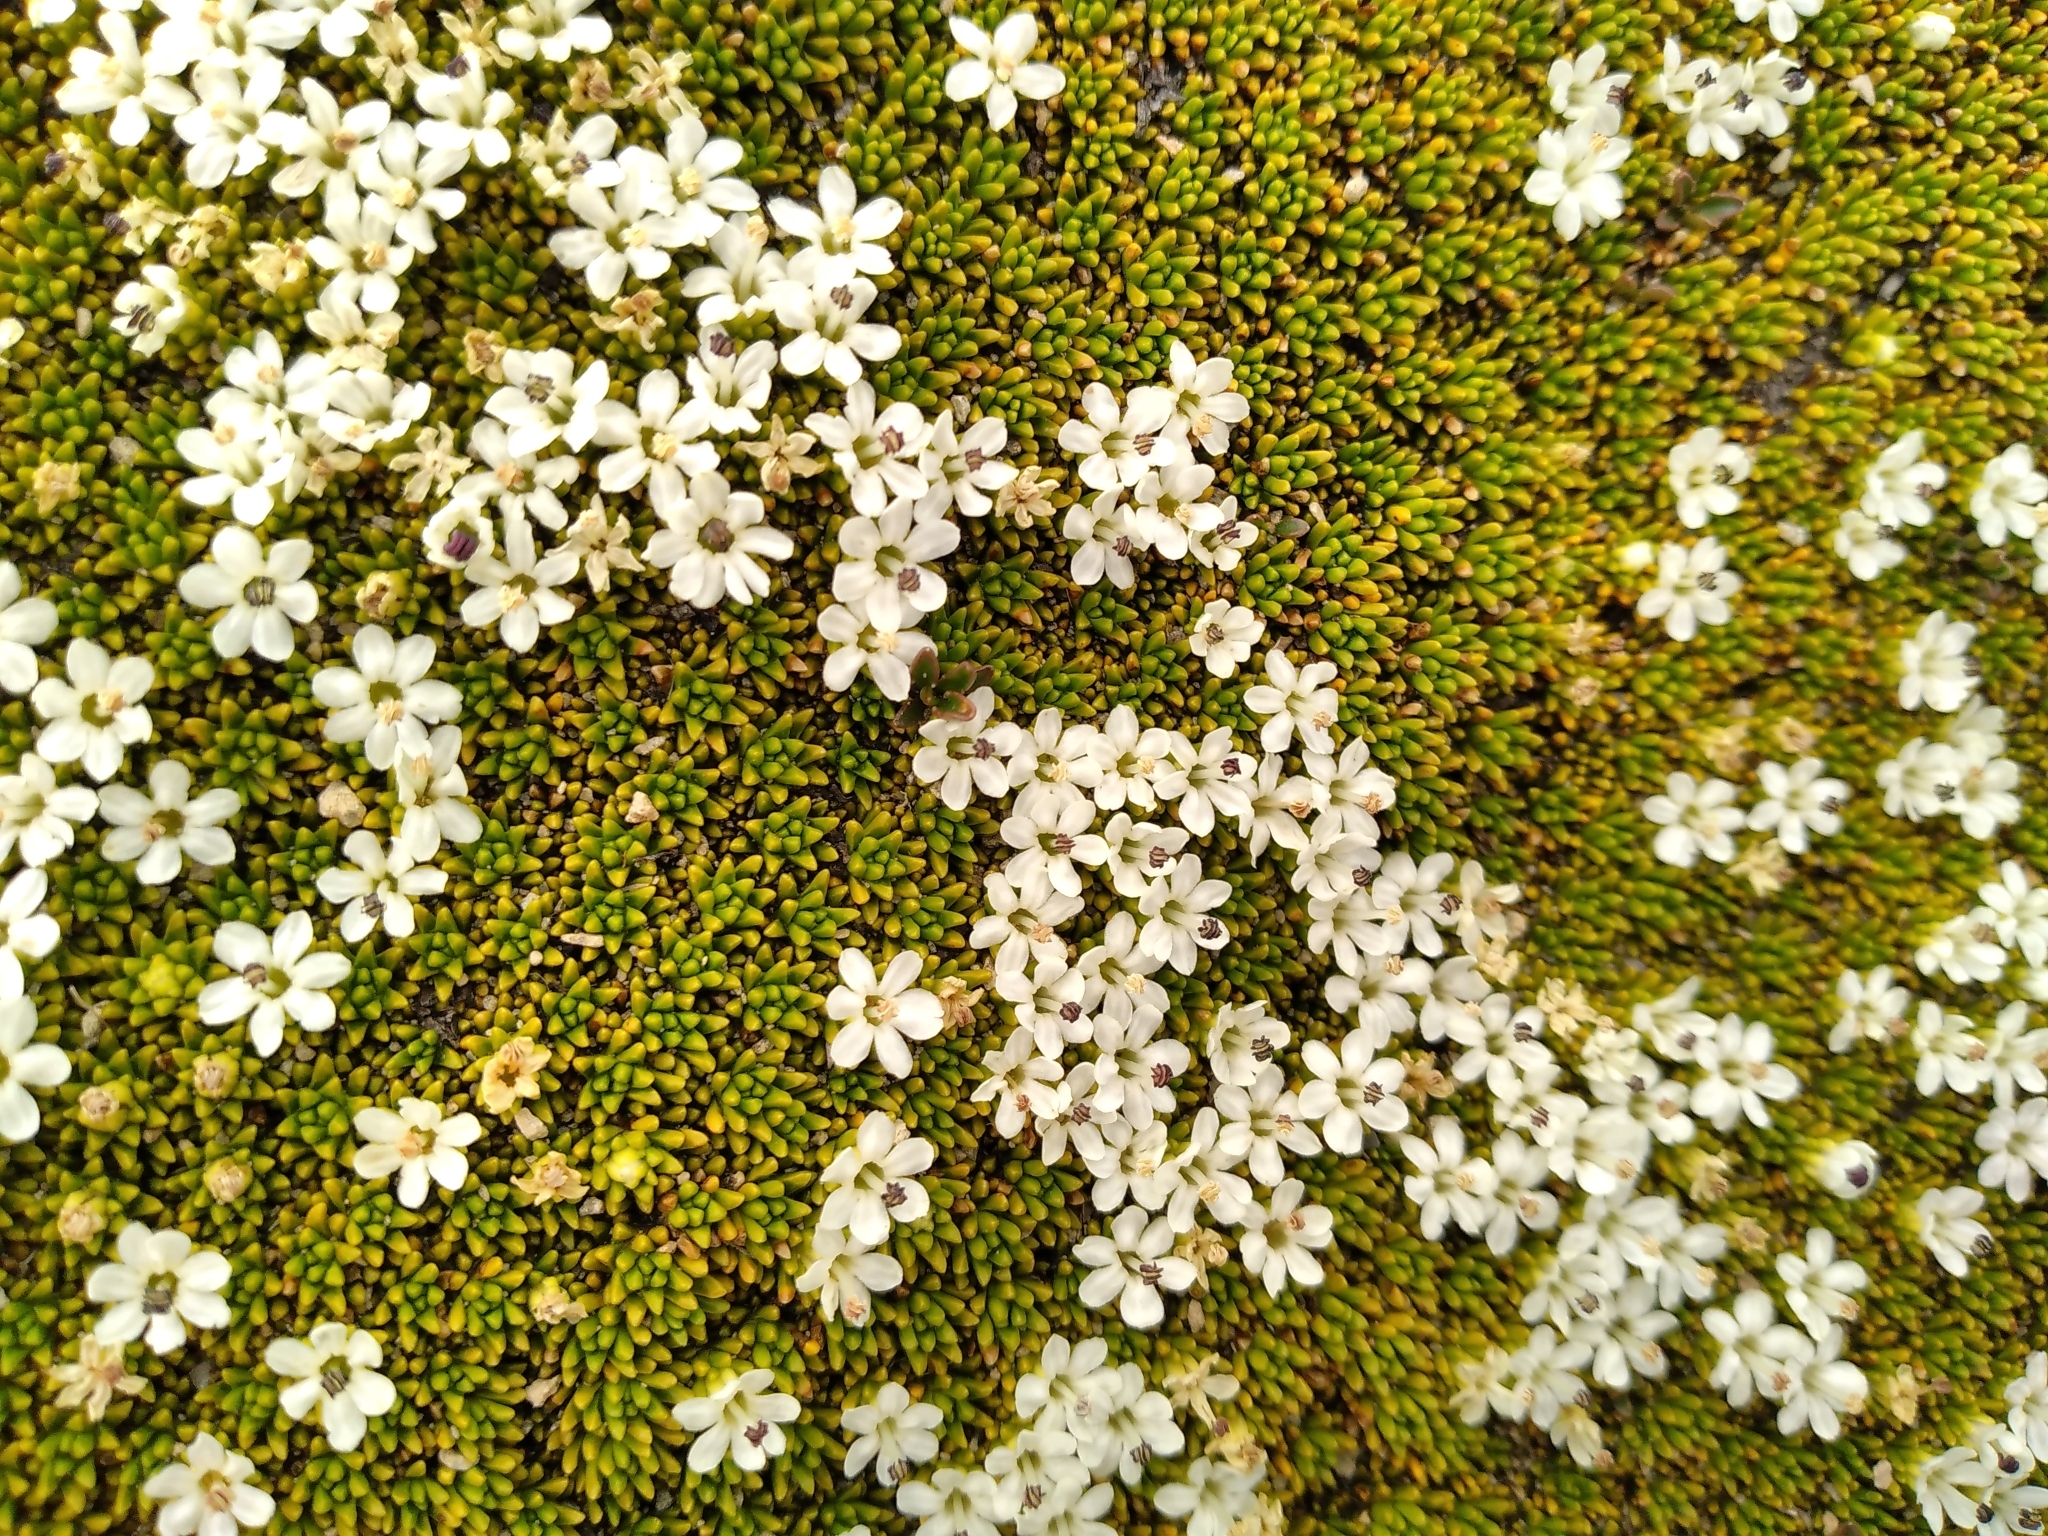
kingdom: Plantae
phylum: Tracheophyta
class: Magnoliopsida
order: Asterales
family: Stylidiaceae
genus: Phyllachne
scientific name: Phyllachne colensoi
